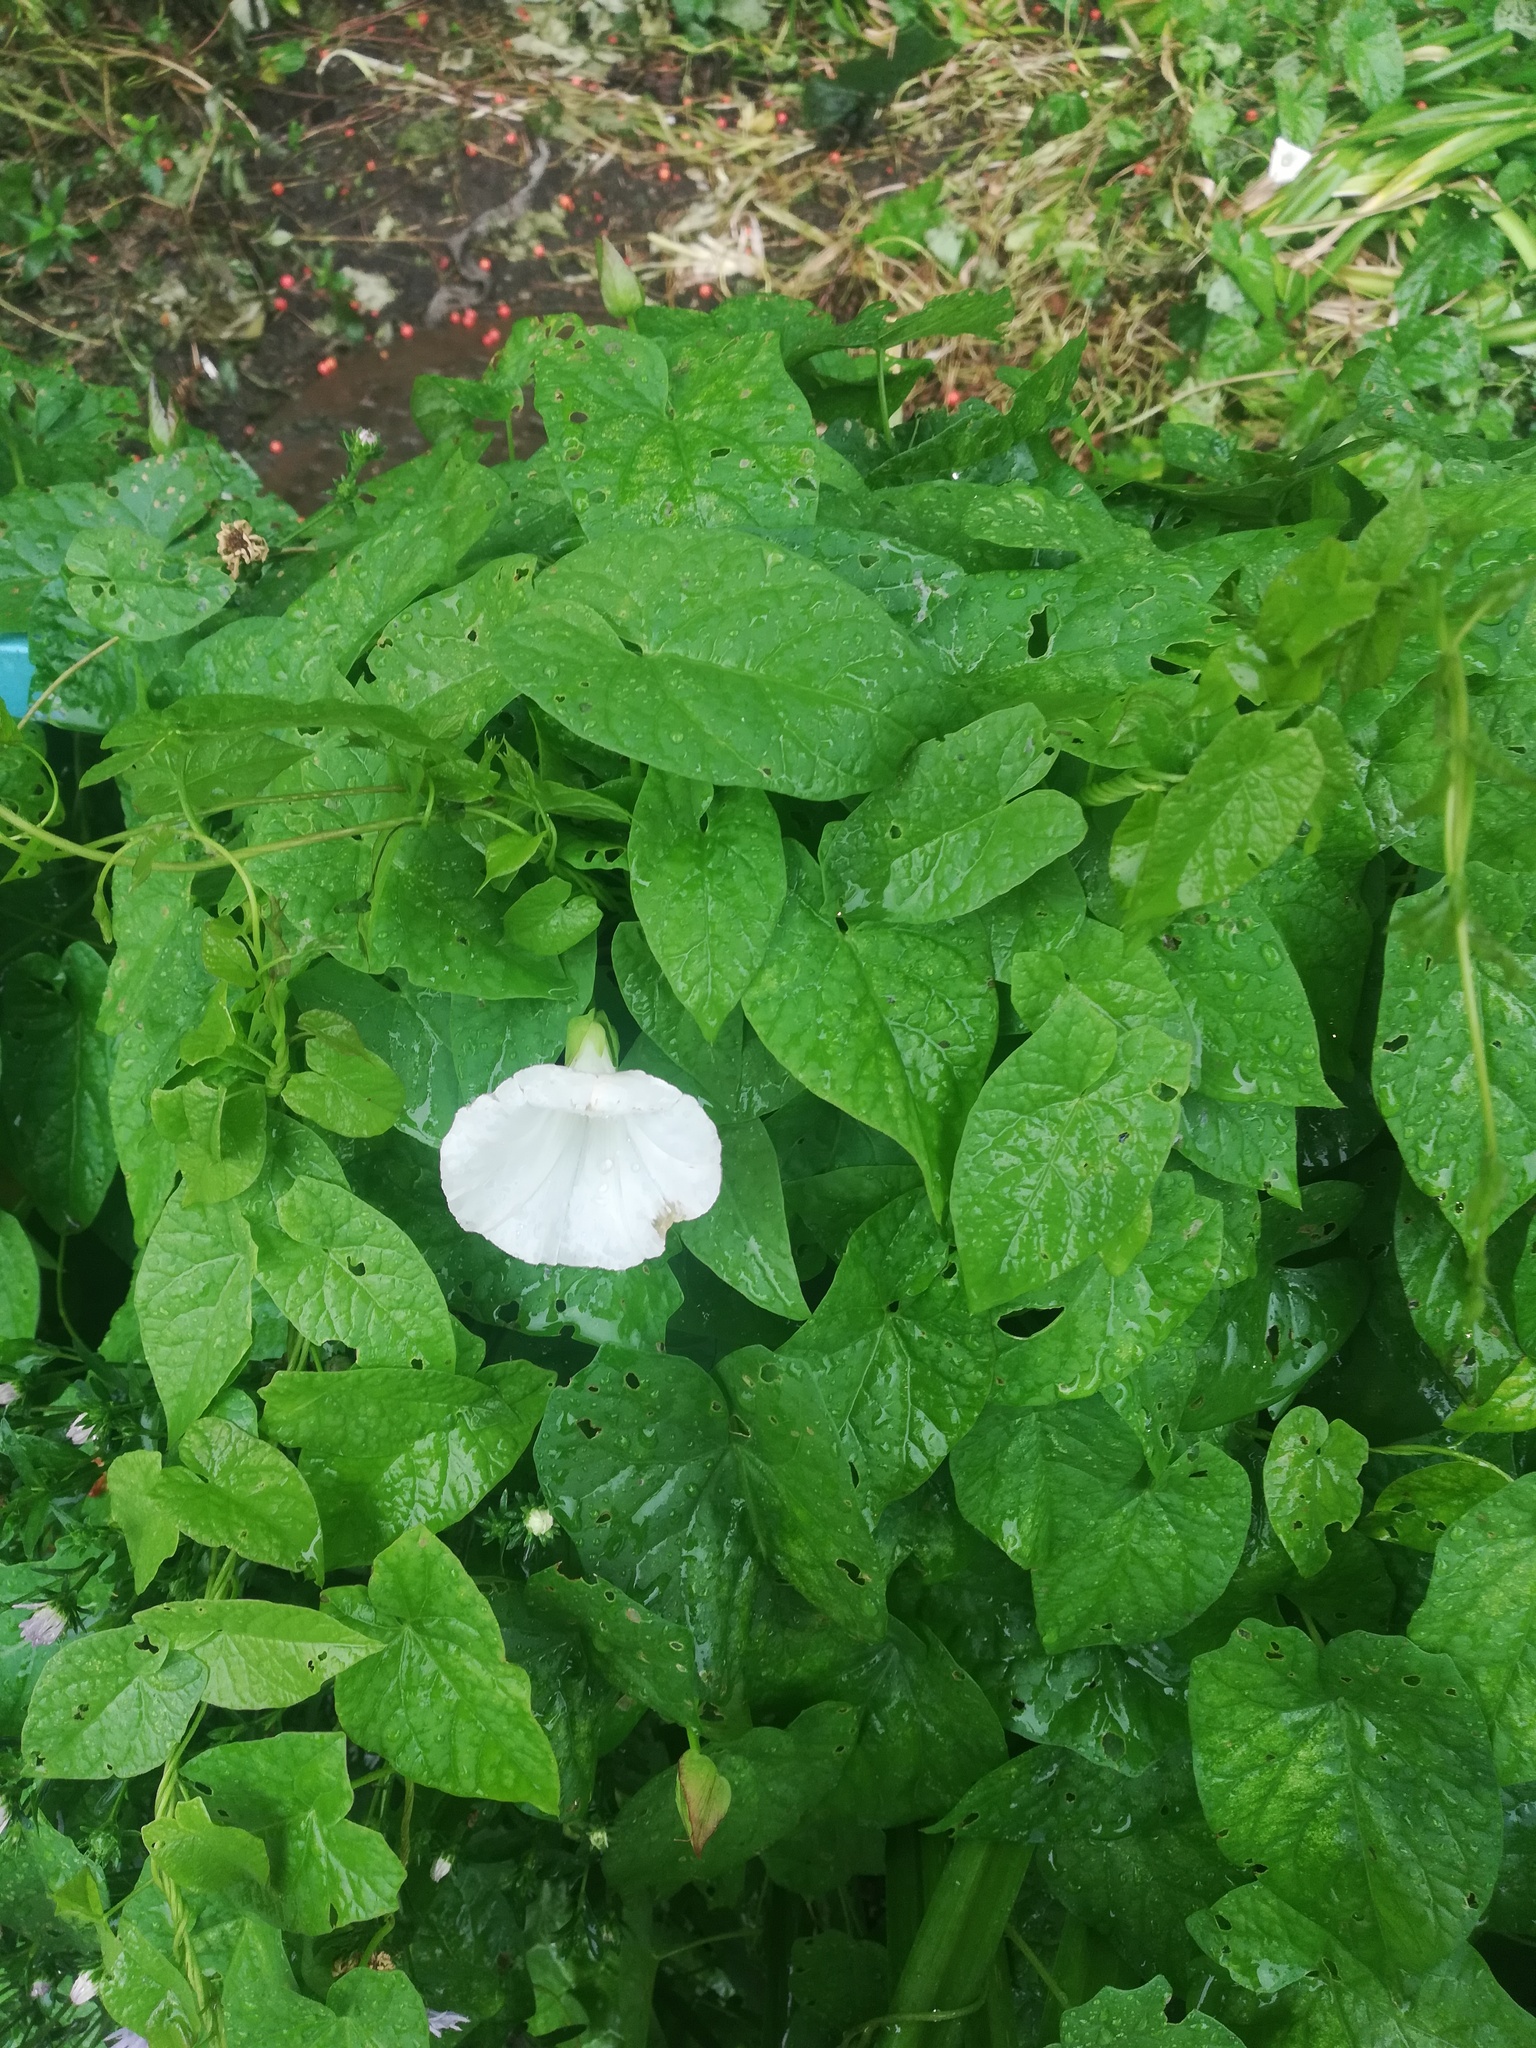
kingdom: Plantae
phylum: Tracheophyta
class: Magnoliopsida
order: Solanales
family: Convolvulaceae
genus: Calystegia
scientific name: Calystegia sepium
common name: Hedge bindweed
